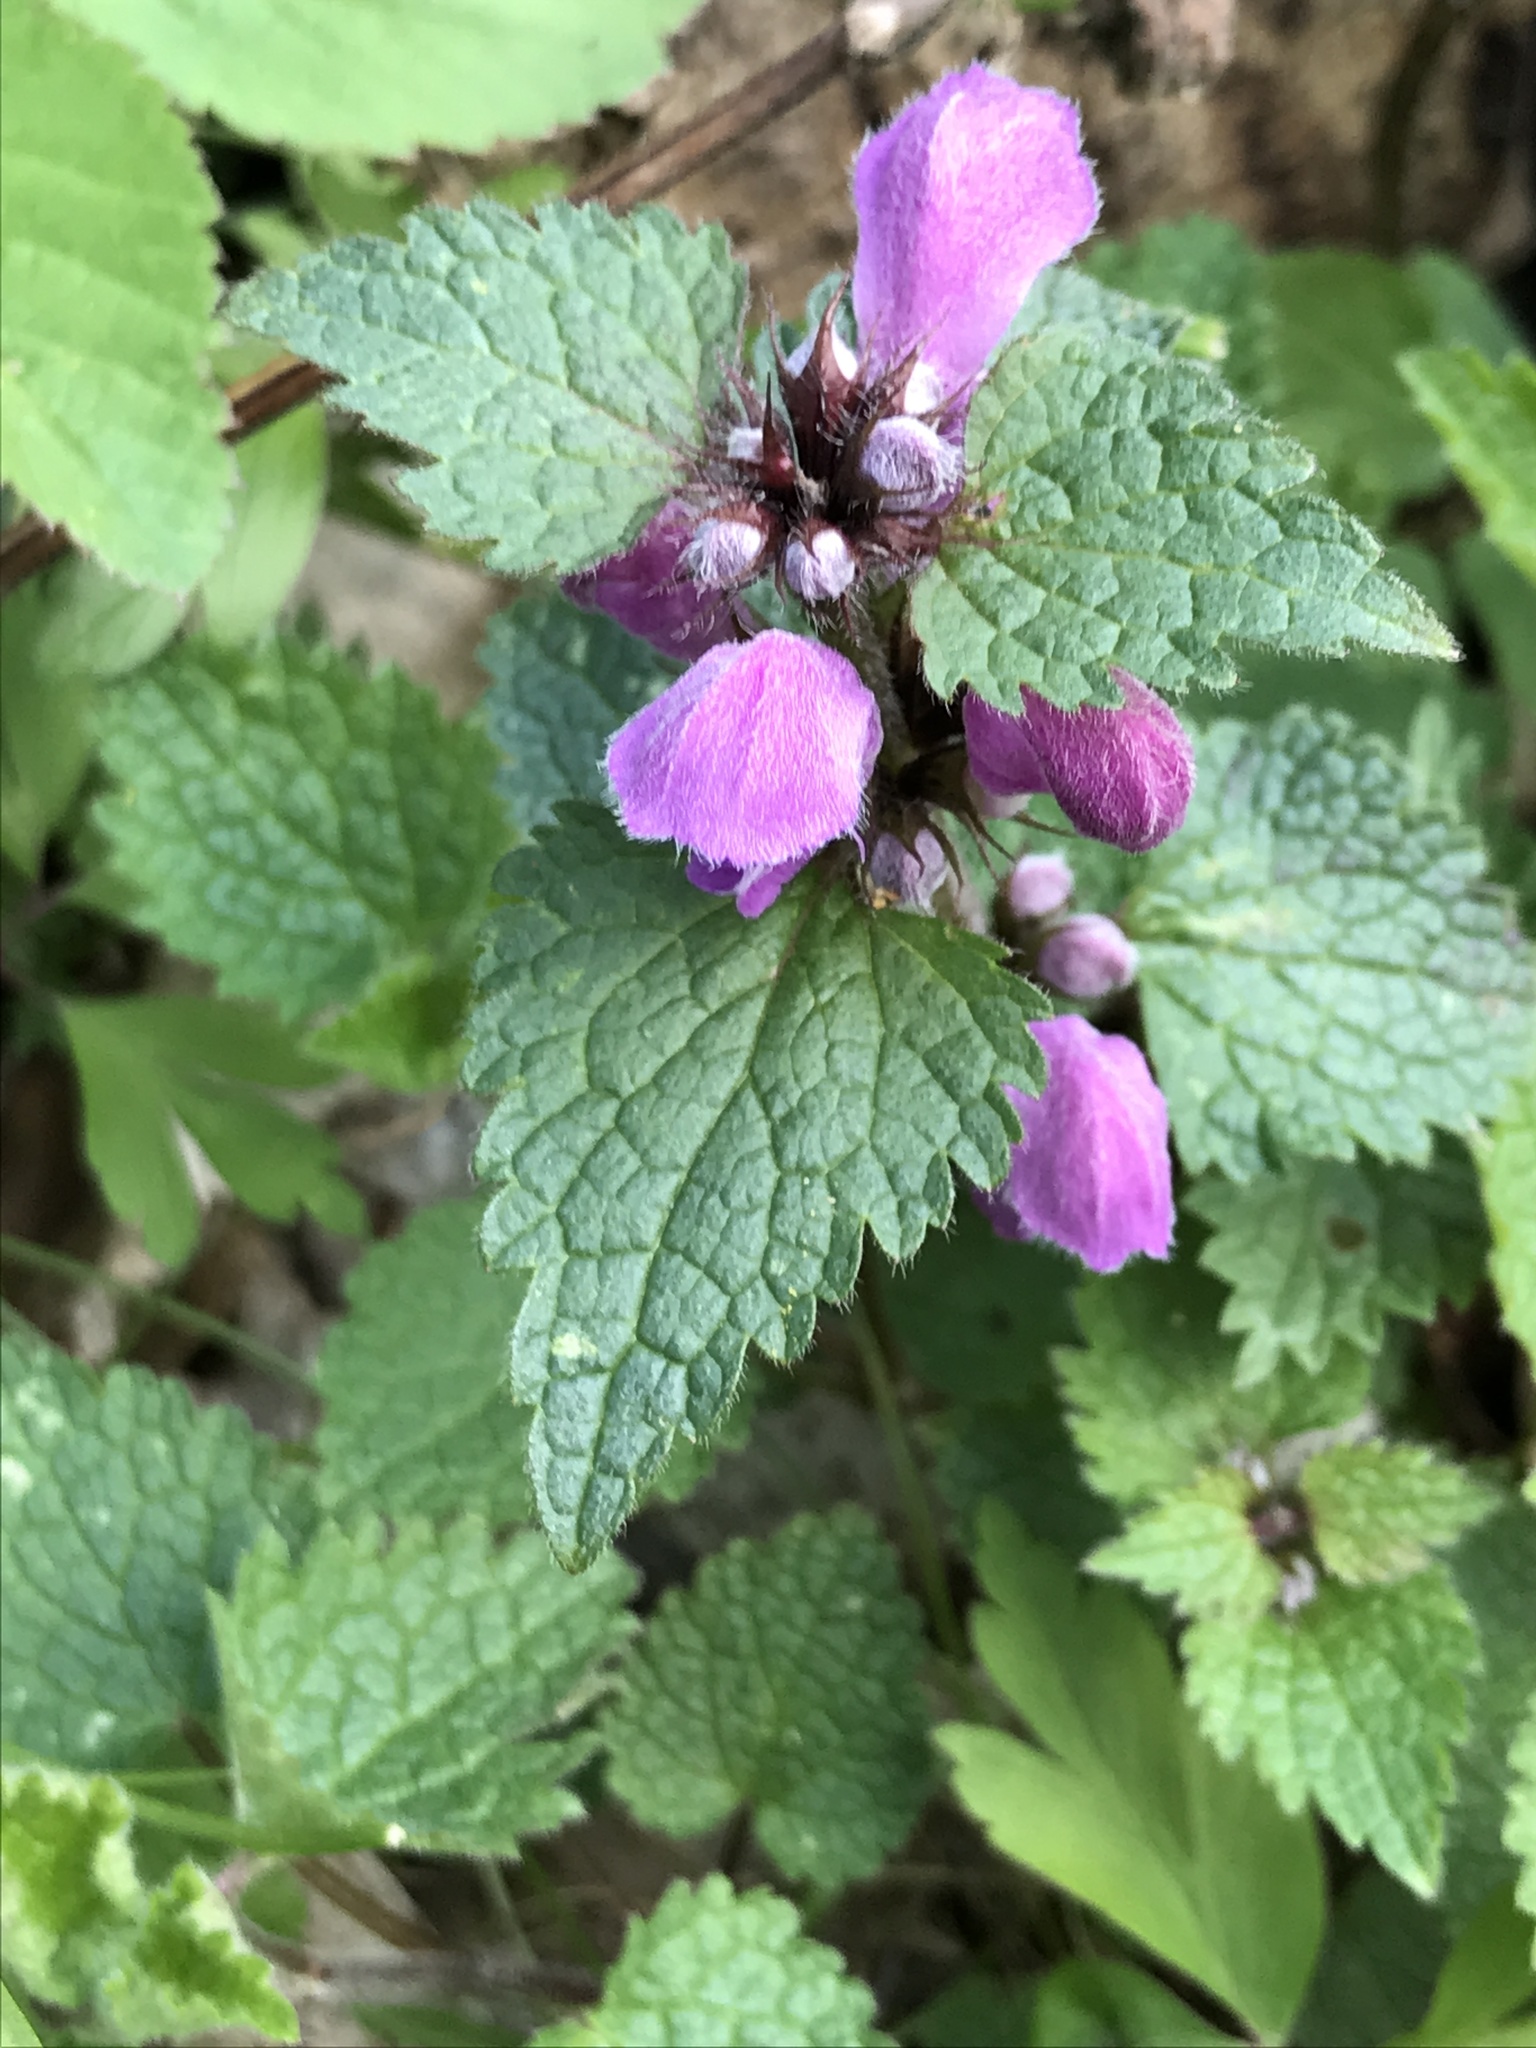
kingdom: Plantae
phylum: Tracheophyta
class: Magnoliopsida
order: Lamiales
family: Lamiaceae
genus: Lamium
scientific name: Lamium maculatum
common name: Spotted dead-nettle
